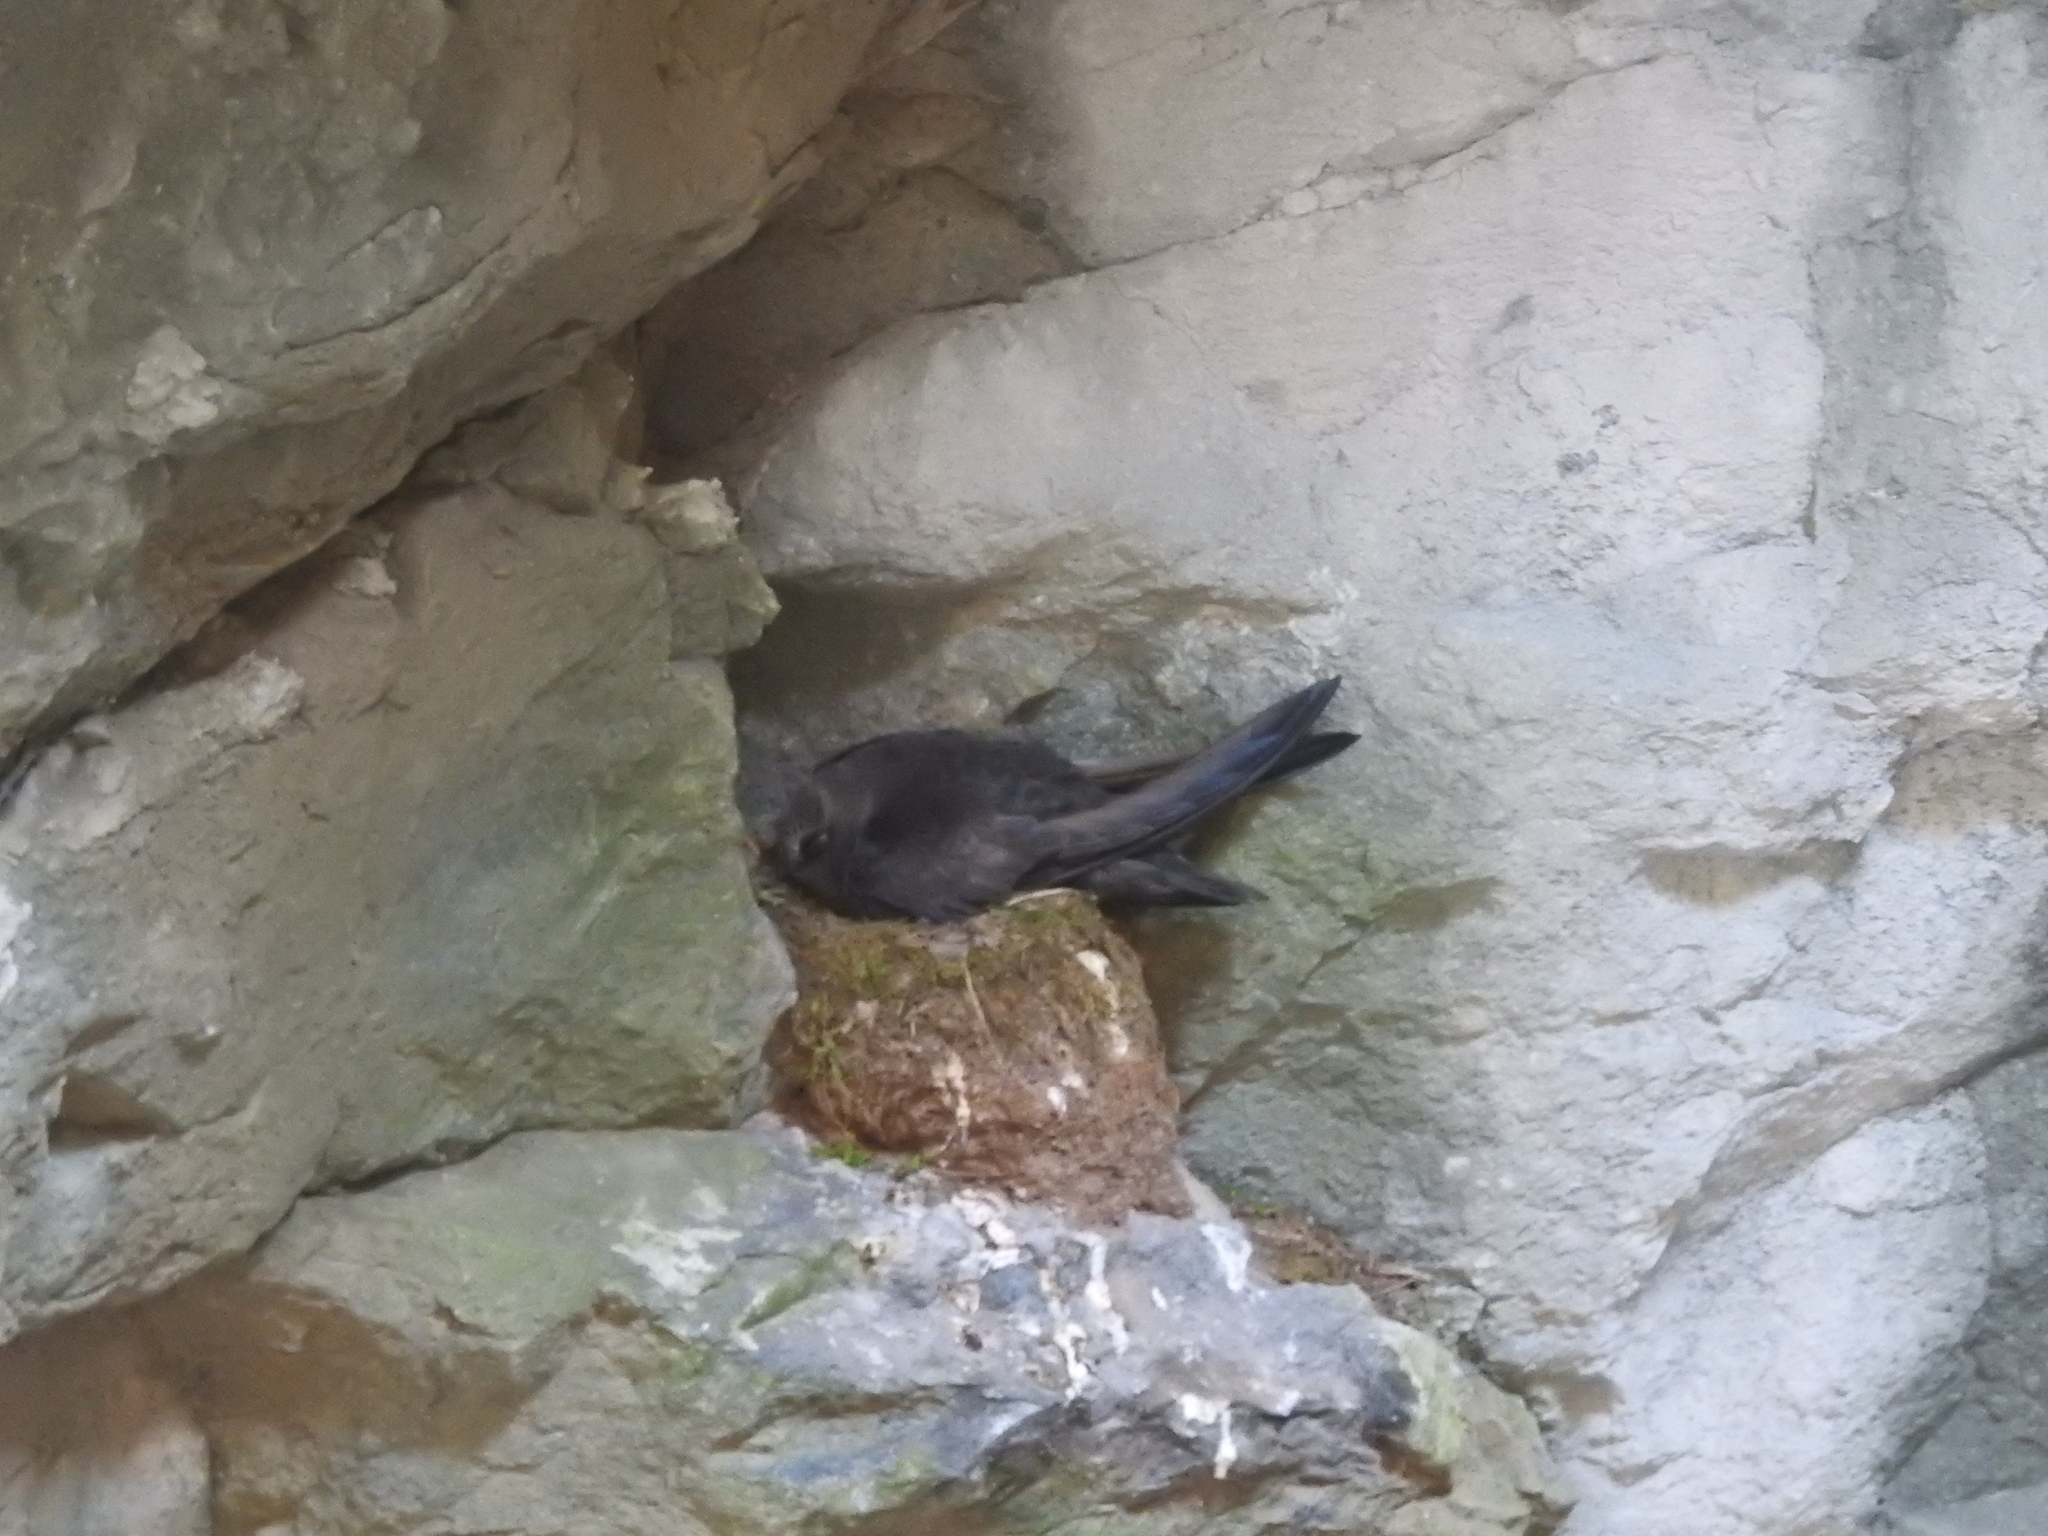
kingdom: Animalia
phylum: Chordata
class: Aves
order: Apodiformes
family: Apodidae
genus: Cypseloides
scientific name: Cypseloides niger
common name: Black swift
